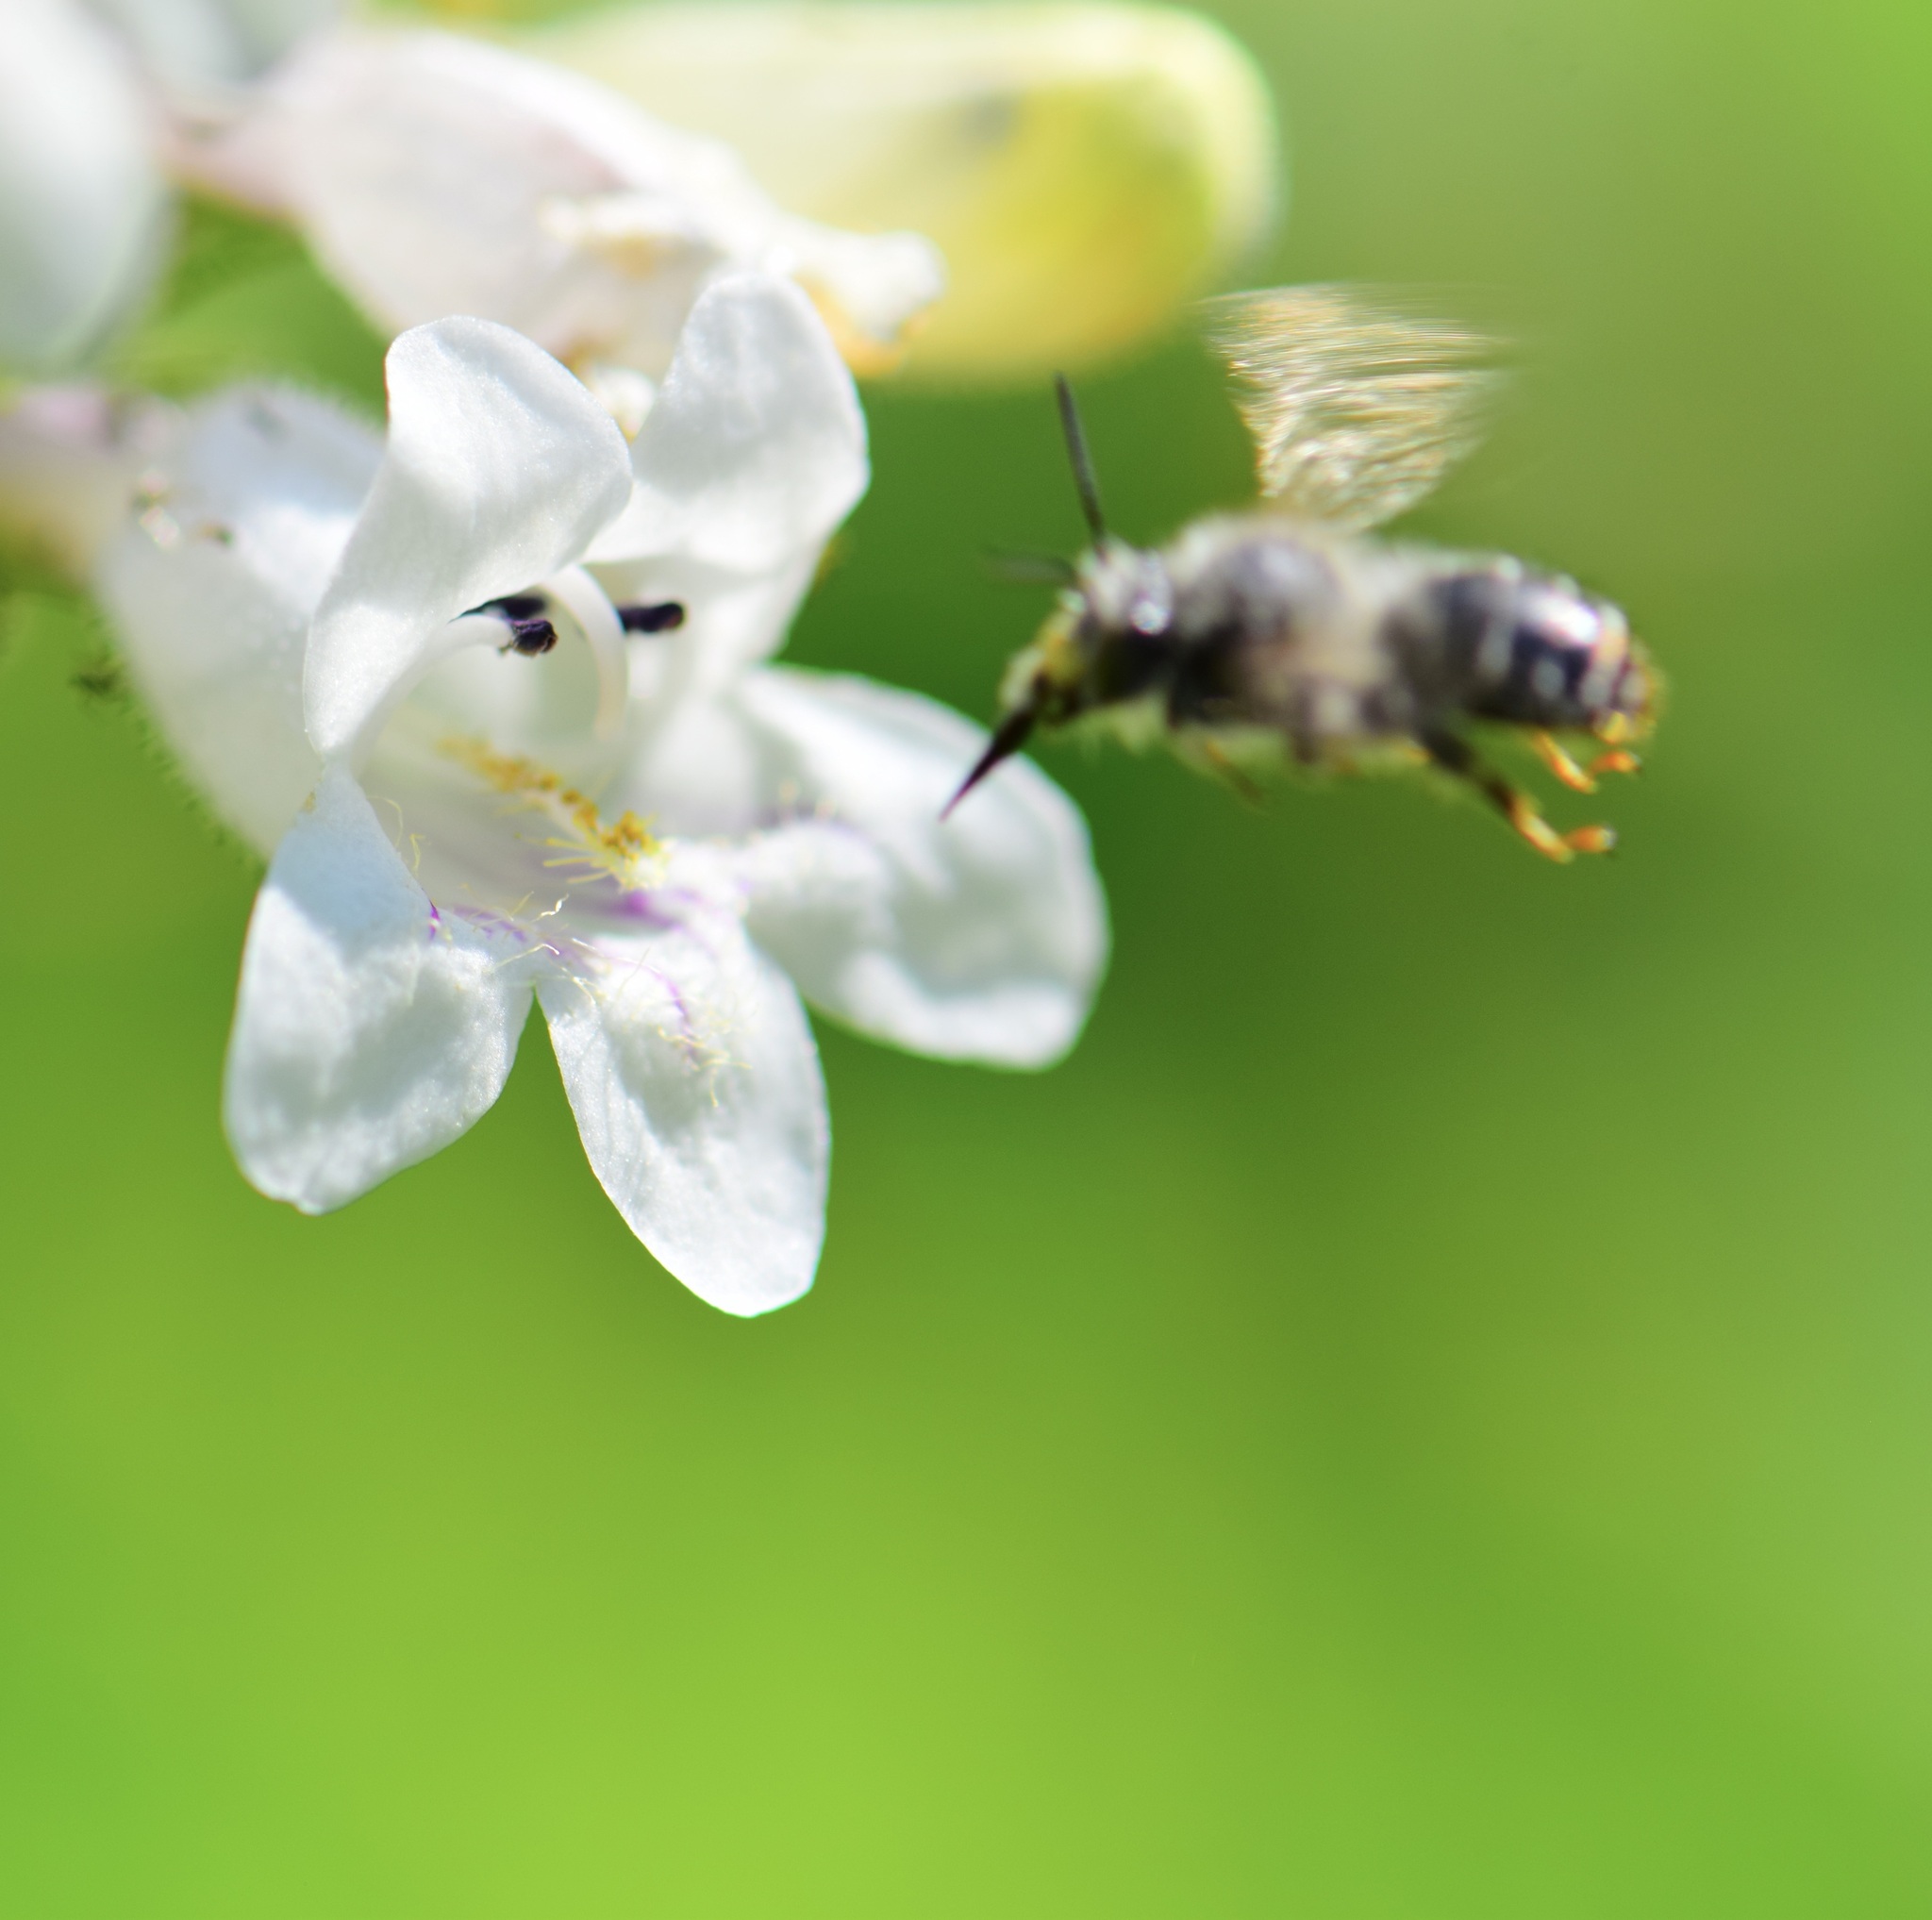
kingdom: Animalia
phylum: Arthropoda
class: Insecta
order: Hymenoptera
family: Apidae
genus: Anthophora
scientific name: Anthophora terminalis
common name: Orange-tipped wood-digger bee
